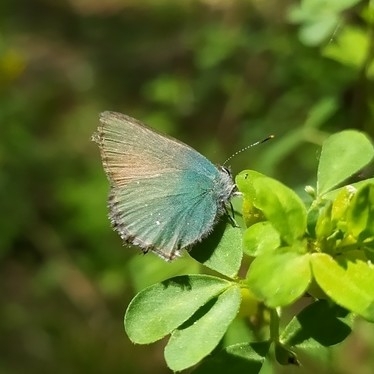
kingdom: Animalia
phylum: Arthropoda
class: Insecta
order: Lepidoptera
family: Lycaenidae
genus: Callophrys
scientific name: Callophrys rubi
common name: Green hairstreak
